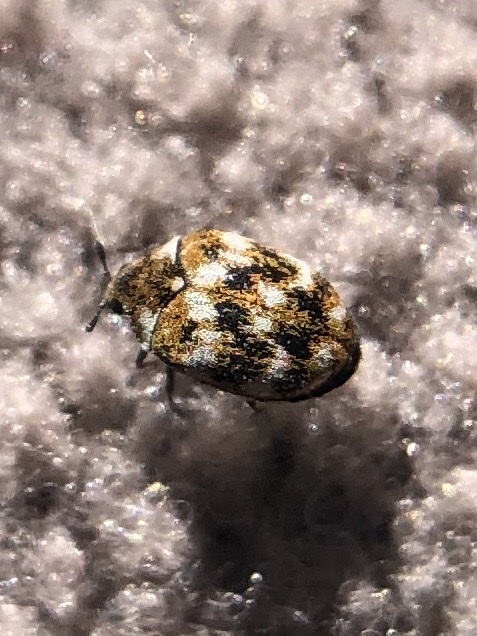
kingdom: Animalia
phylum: Arthropoda
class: Insecta
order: Coleoptera
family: Dermestidae
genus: Anthrenus
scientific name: Anthrenus verbasci
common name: Varied carpet beetle
